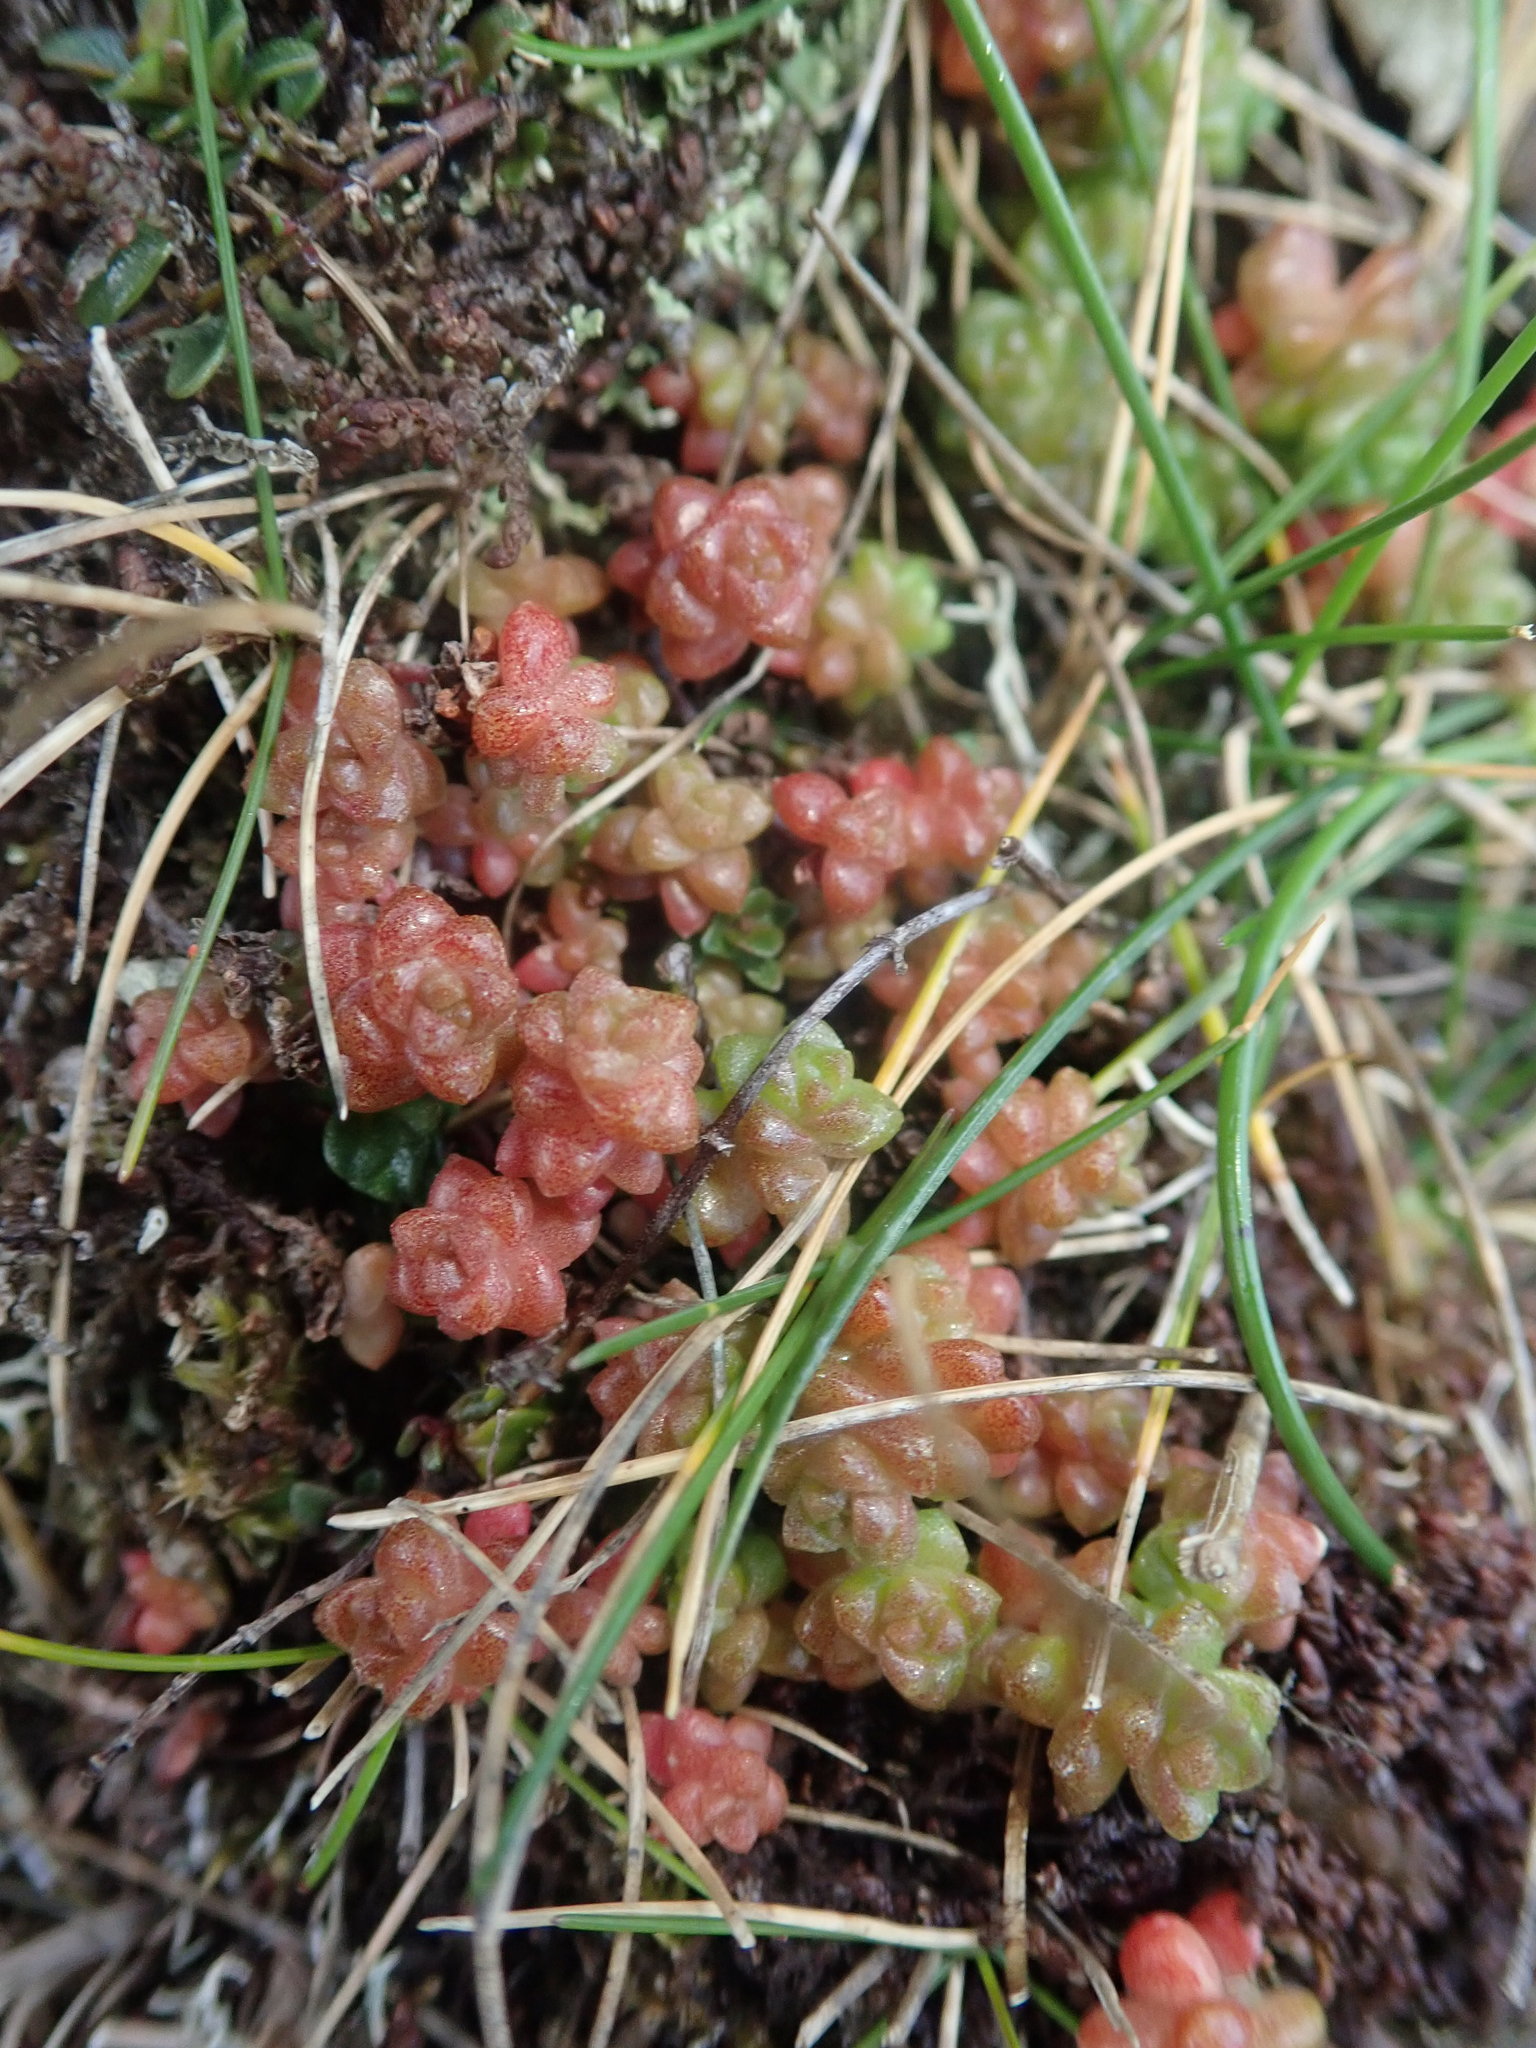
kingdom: Plantae
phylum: Tracheophyta
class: Magnoliopsida
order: Saxifragales
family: Crassulaceae
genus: Sedum
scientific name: Sedum anglicum
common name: English stonecrop
